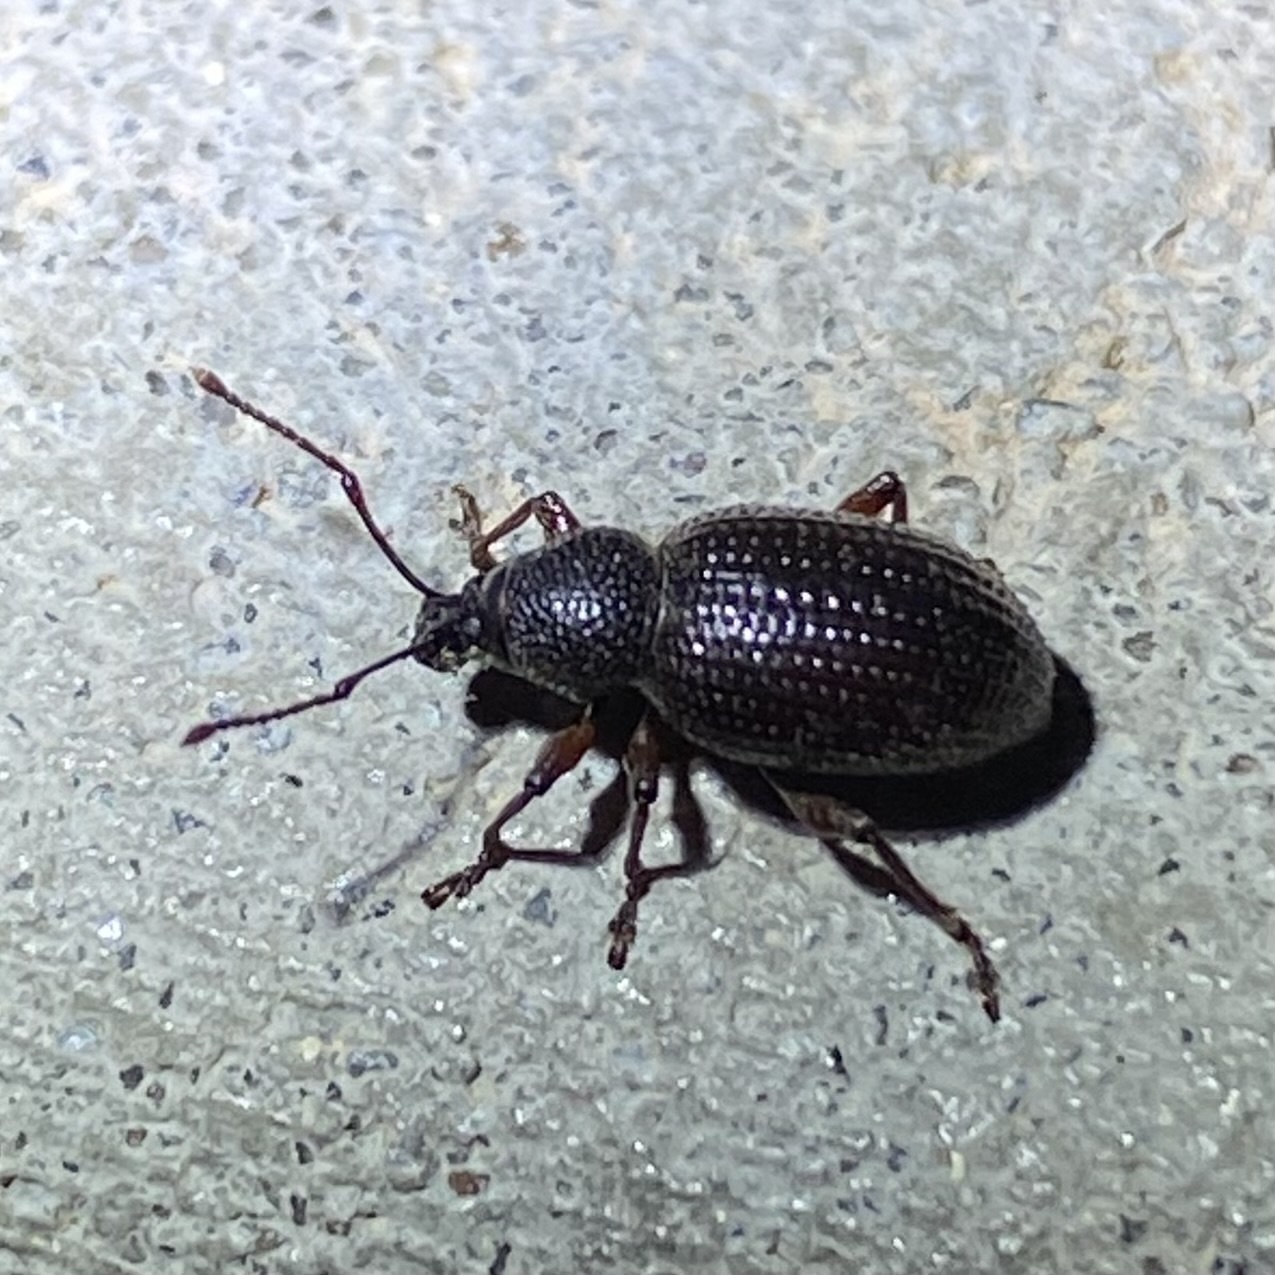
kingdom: Animalia
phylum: Arthropoda
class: Insecta
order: Coleoptera
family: Curculionidae
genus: Otiorhynchus
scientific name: Otiorhynchus cribricollis
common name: Weevil
